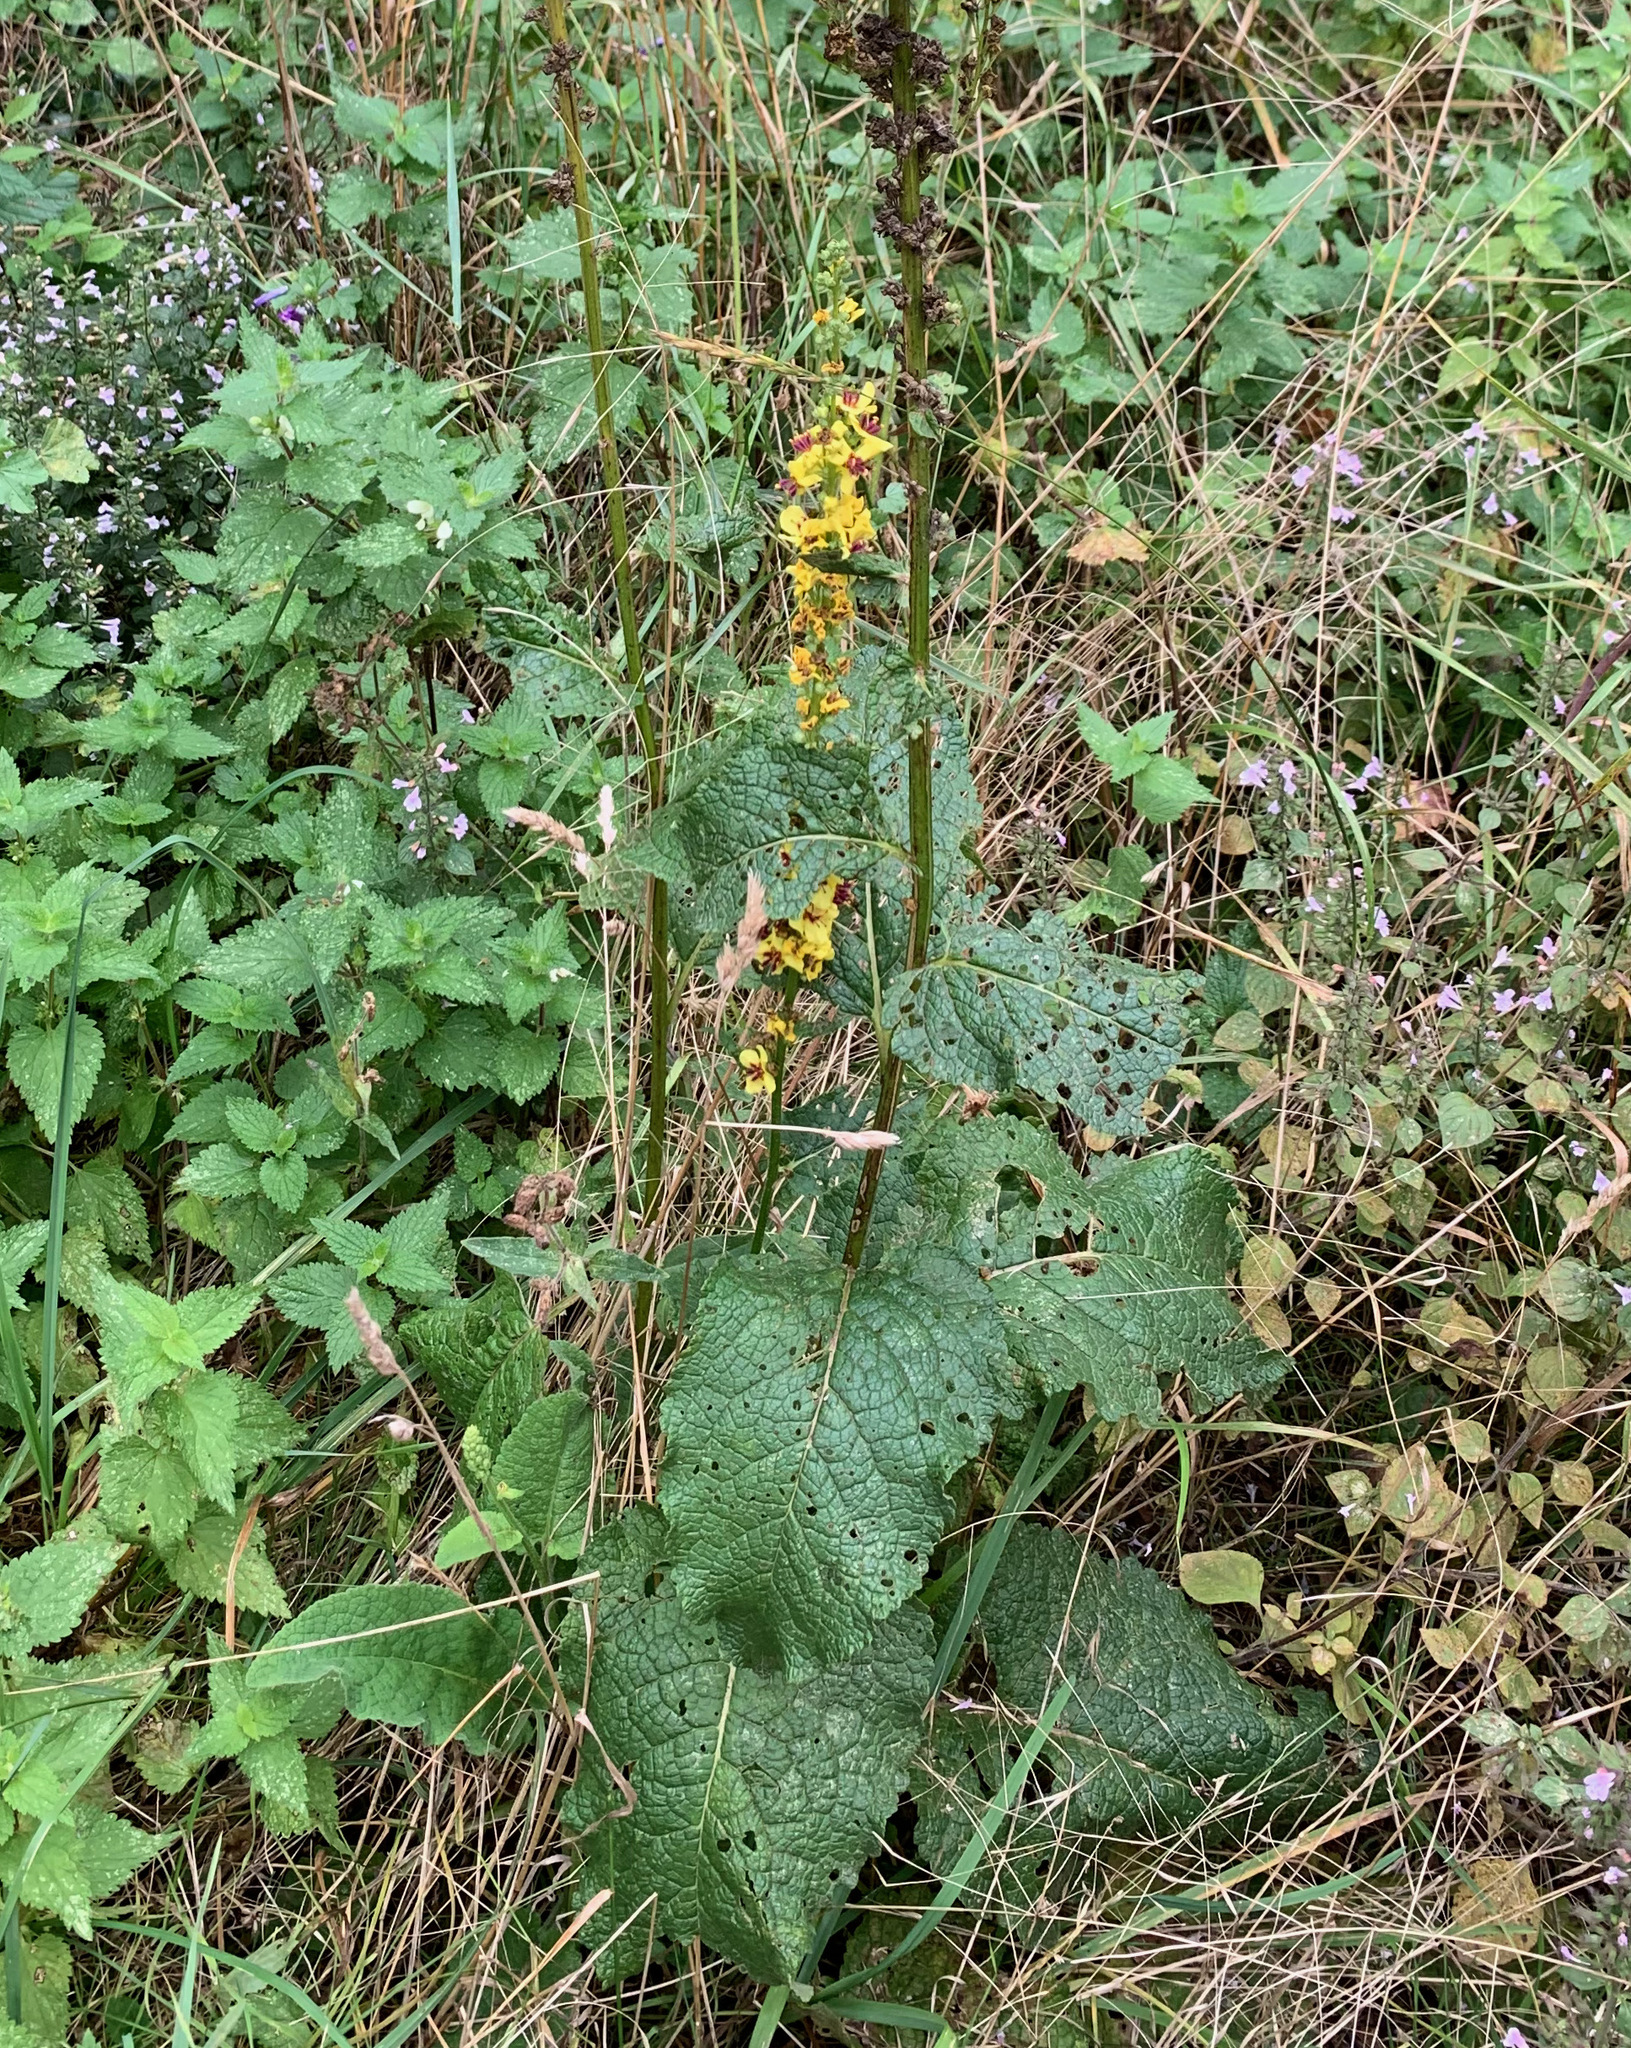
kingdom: Plantae
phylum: Tracheophyta
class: Magnoliopsida
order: Lamiales
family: Scrophulariaceae
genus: Verbascum
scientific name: Verbascum nigrum
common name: Dark mullein
